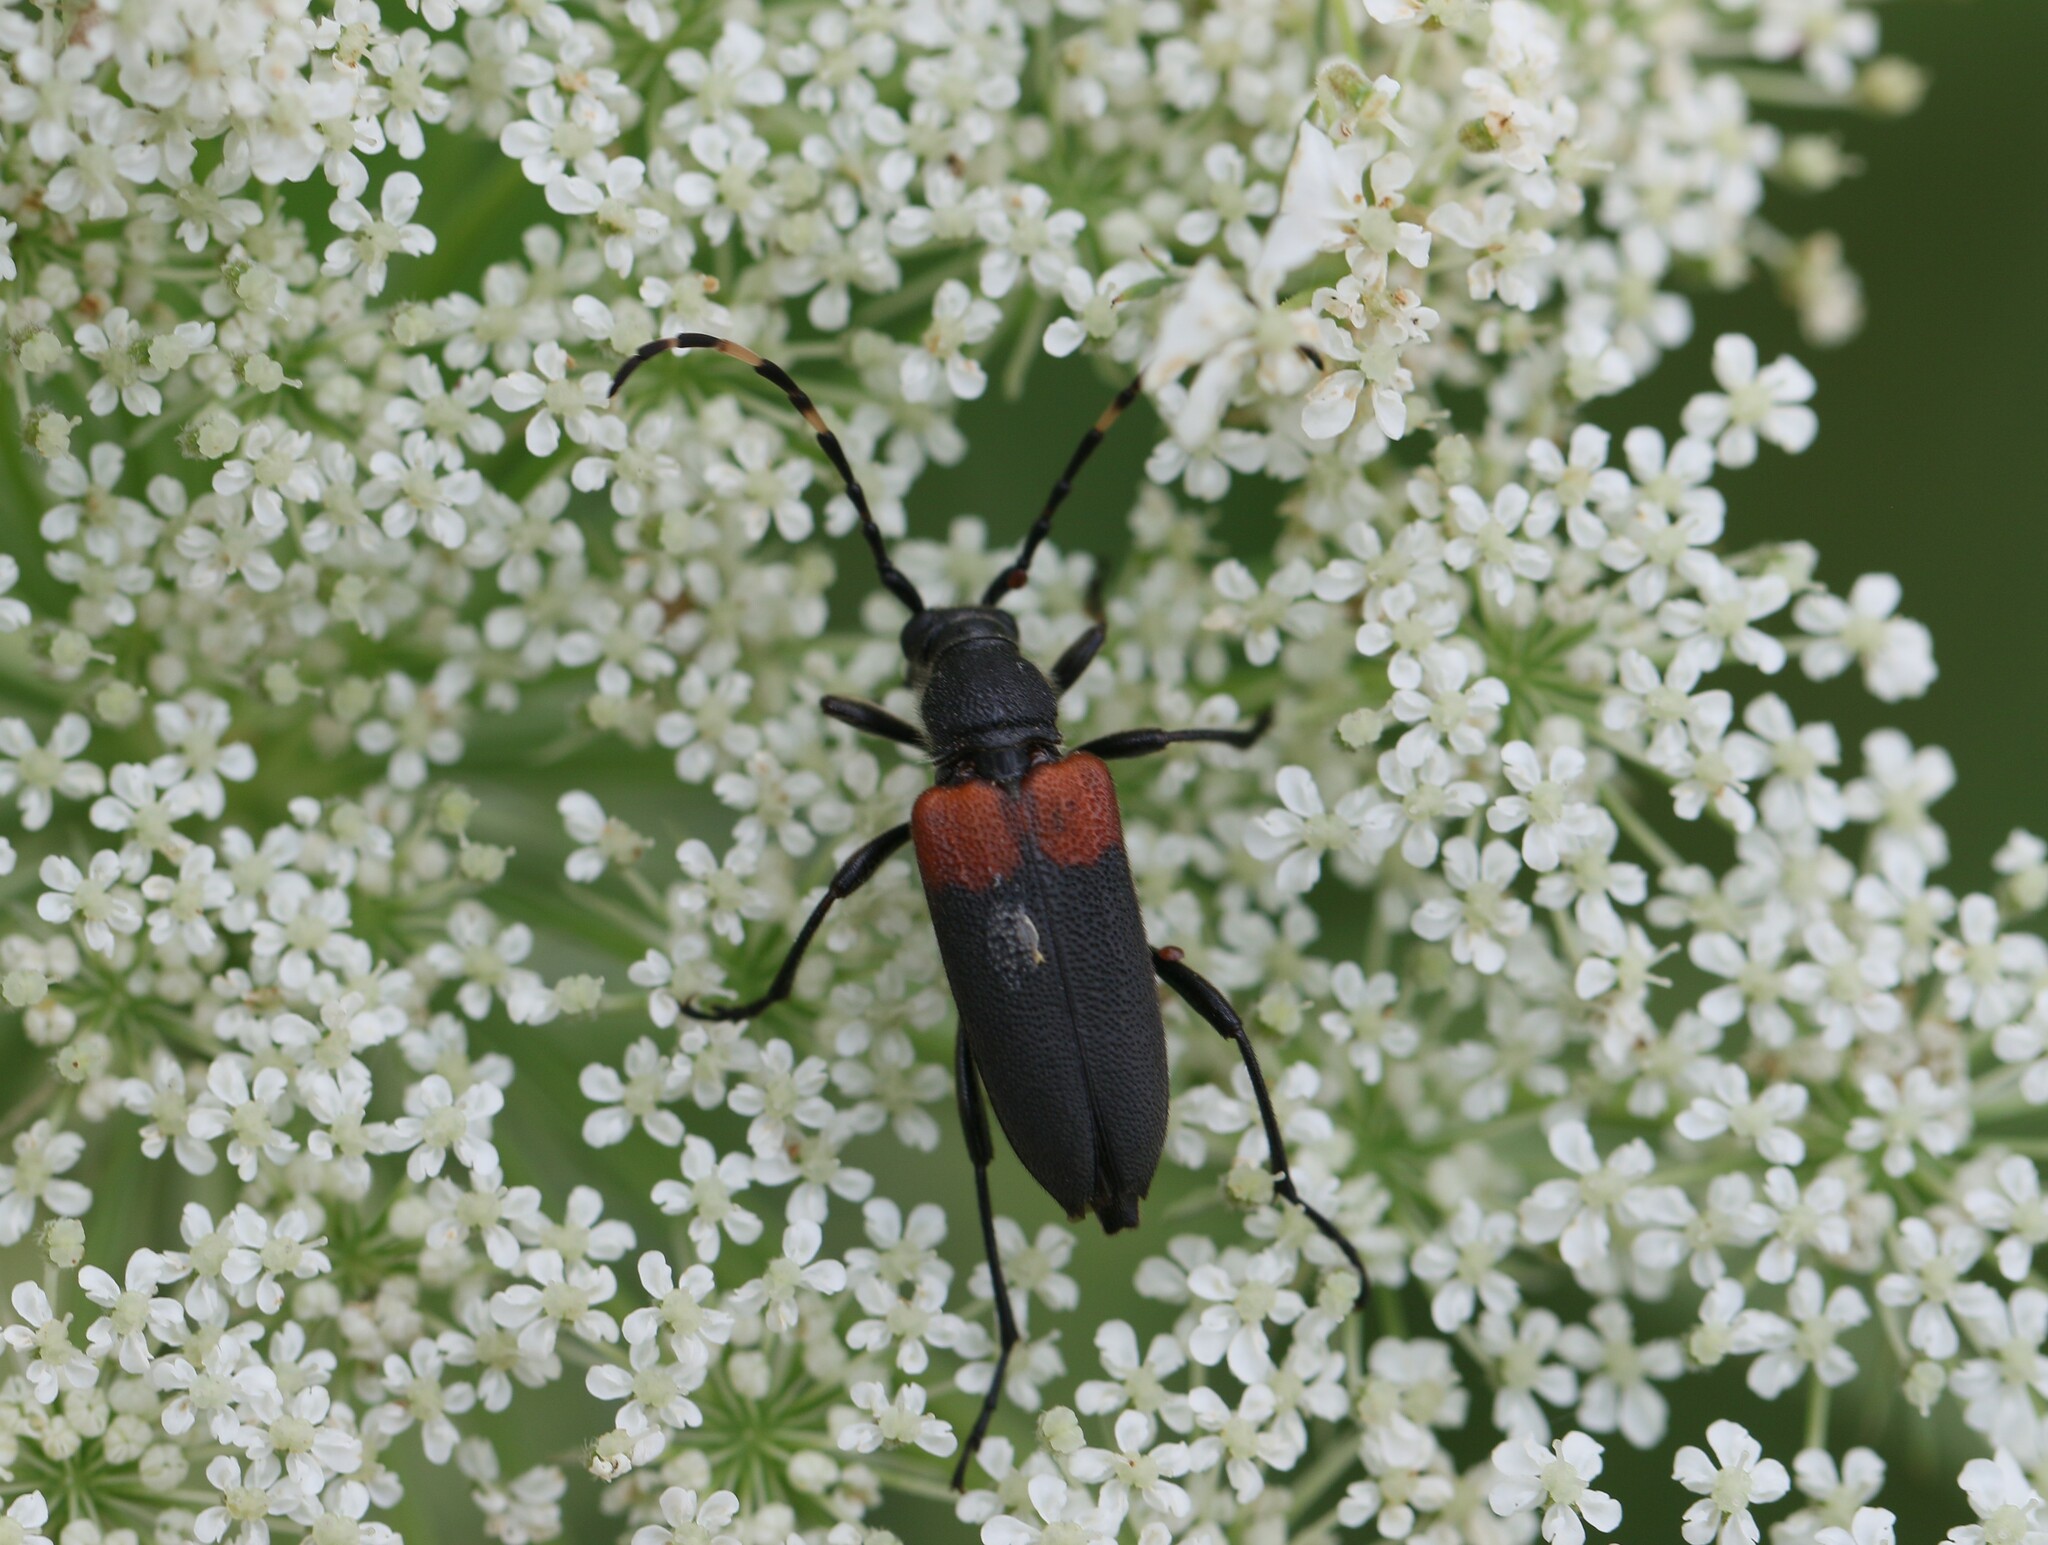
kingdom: Animalia
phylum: Arthropoda
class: Insecta
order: Coleoptera
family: Cerambycidae
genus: Stictoleptura
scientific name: Stictoleptura canadensis
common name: Red-shouldered pine borer
